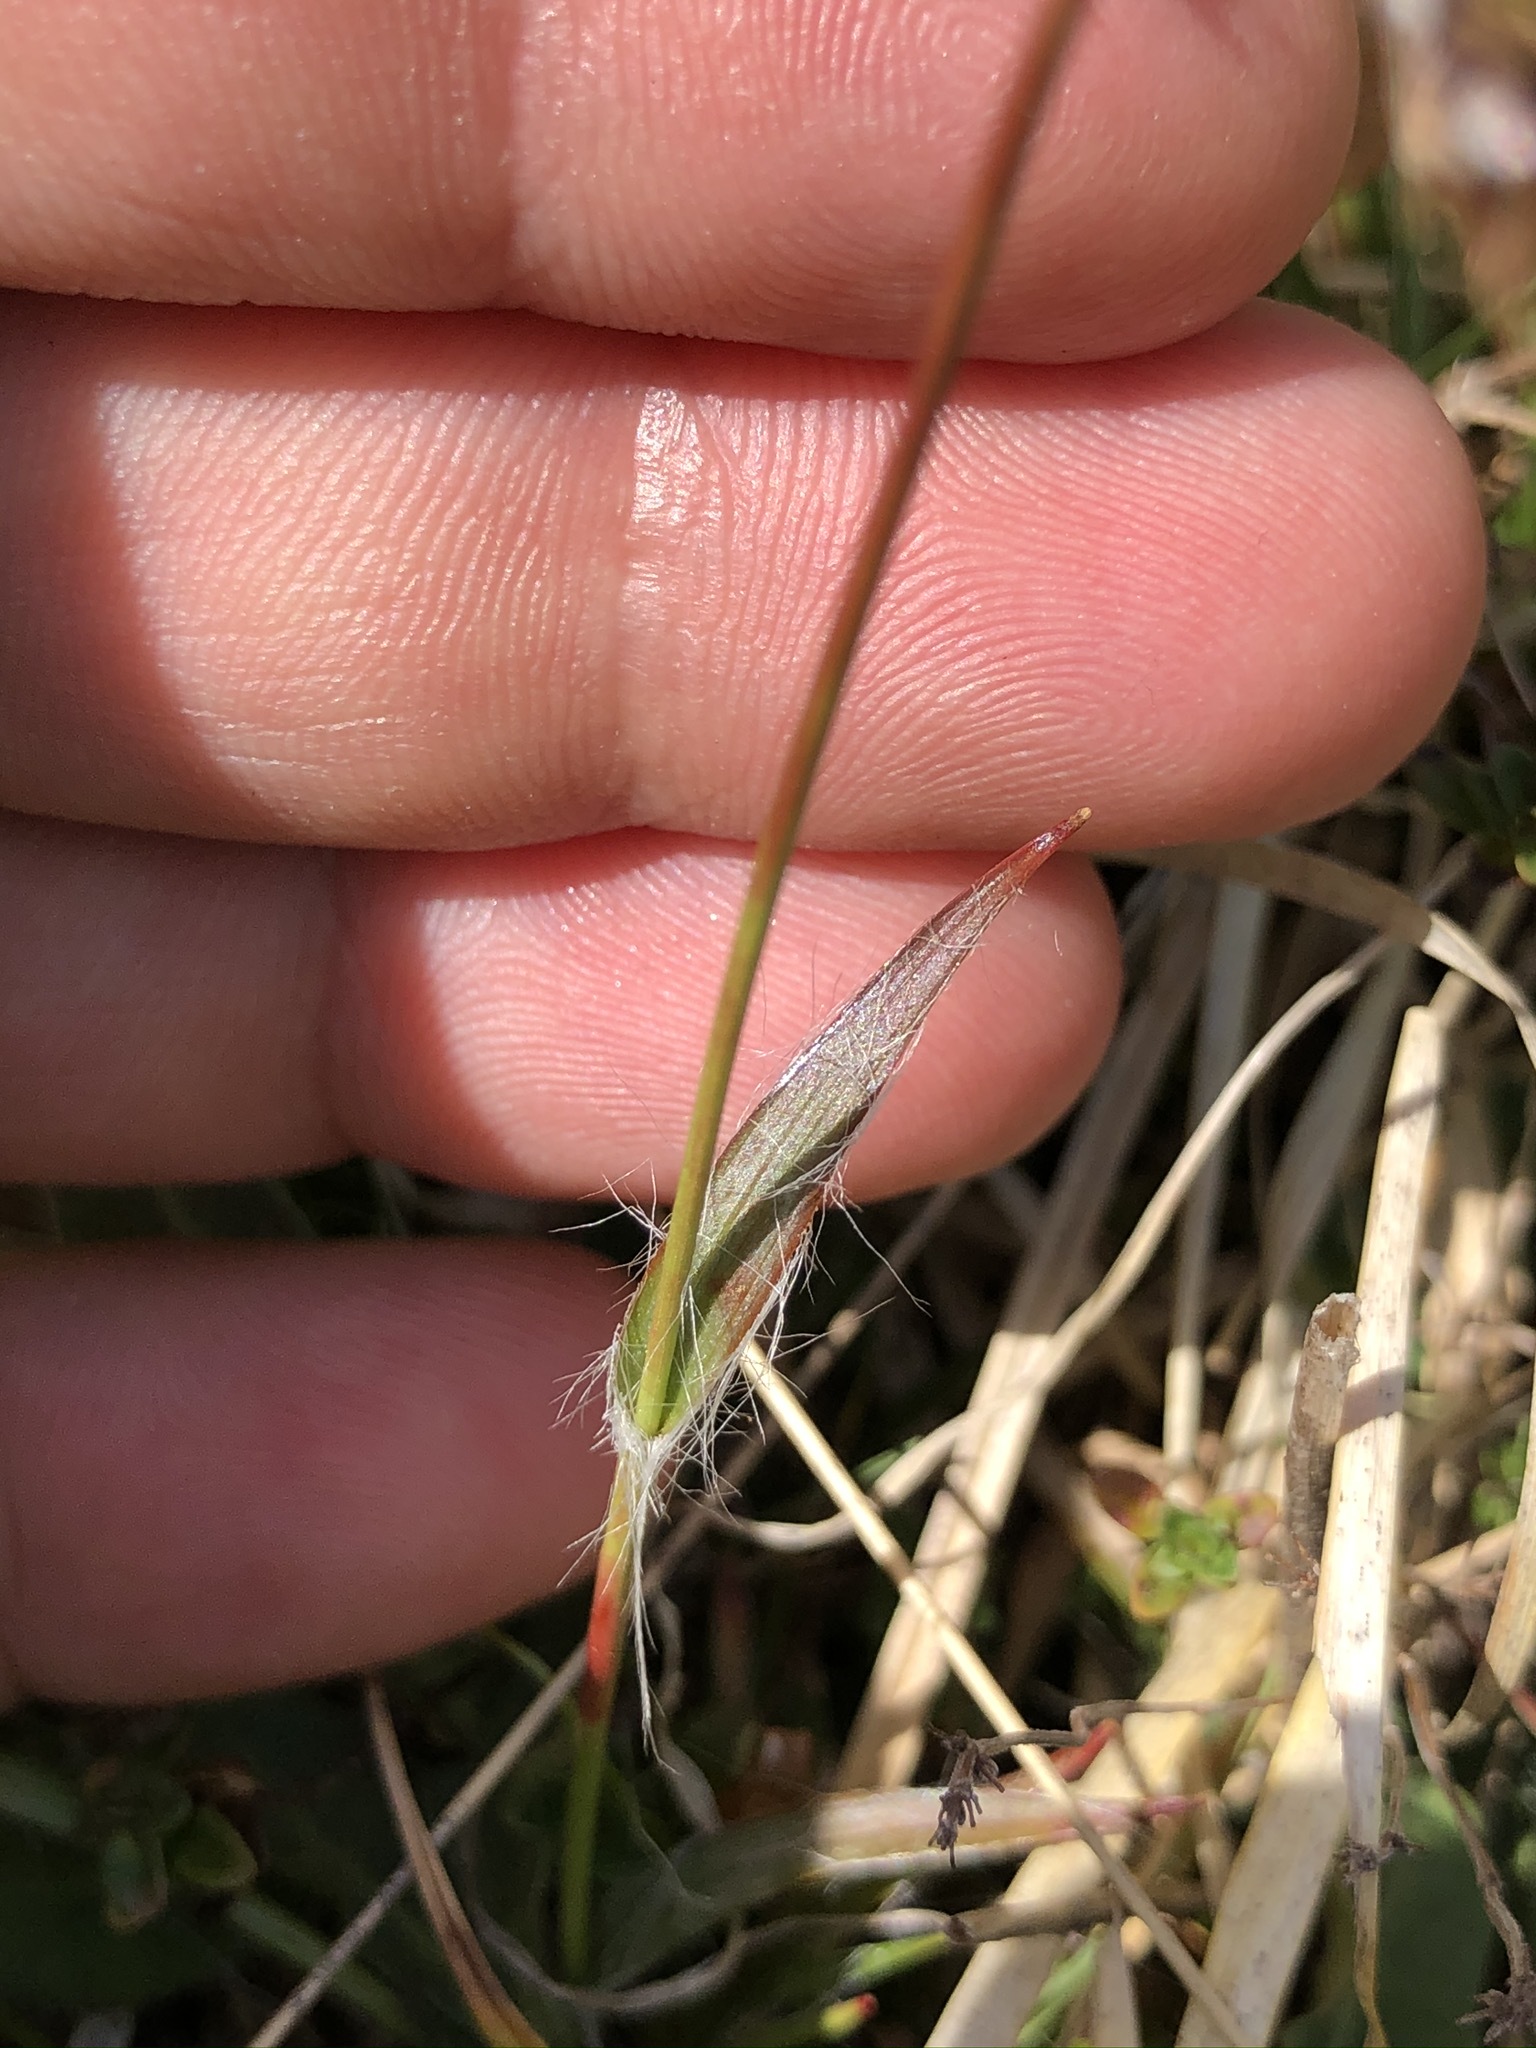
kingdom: Plantae
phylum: Tracheophyta
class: Liliopsida
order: Poales
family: Juncaceae
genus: Luzula
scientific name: Luzula campestris
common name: Field wood-rush
